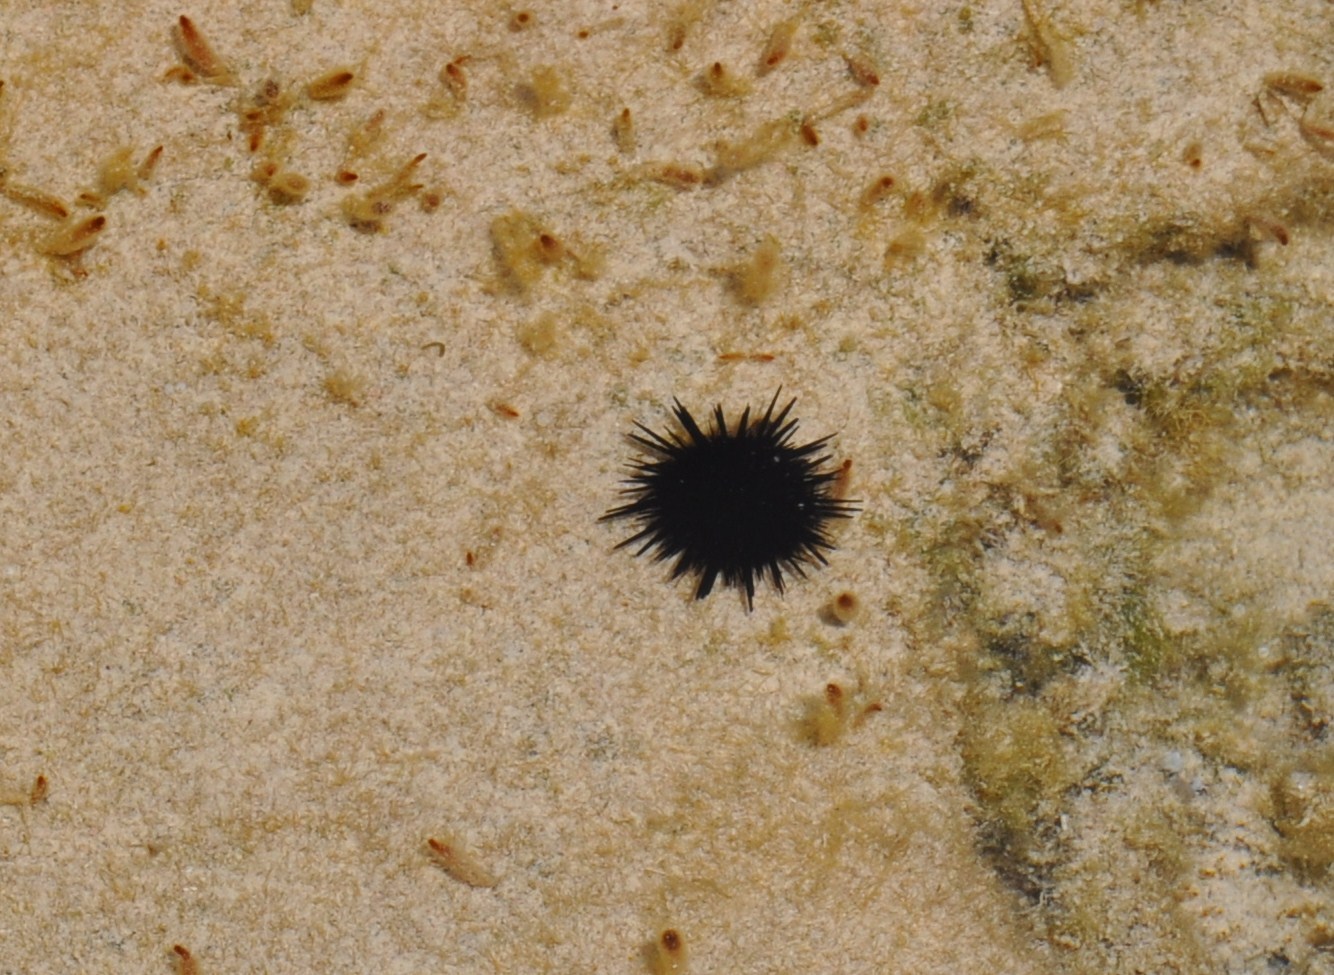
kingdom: Animalia
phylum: Echinodermata
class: Echinoidea
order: Camarodonta
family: Echinometridae
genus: Echinometra
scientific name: Echinometra lucunter
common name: Rock urchin
